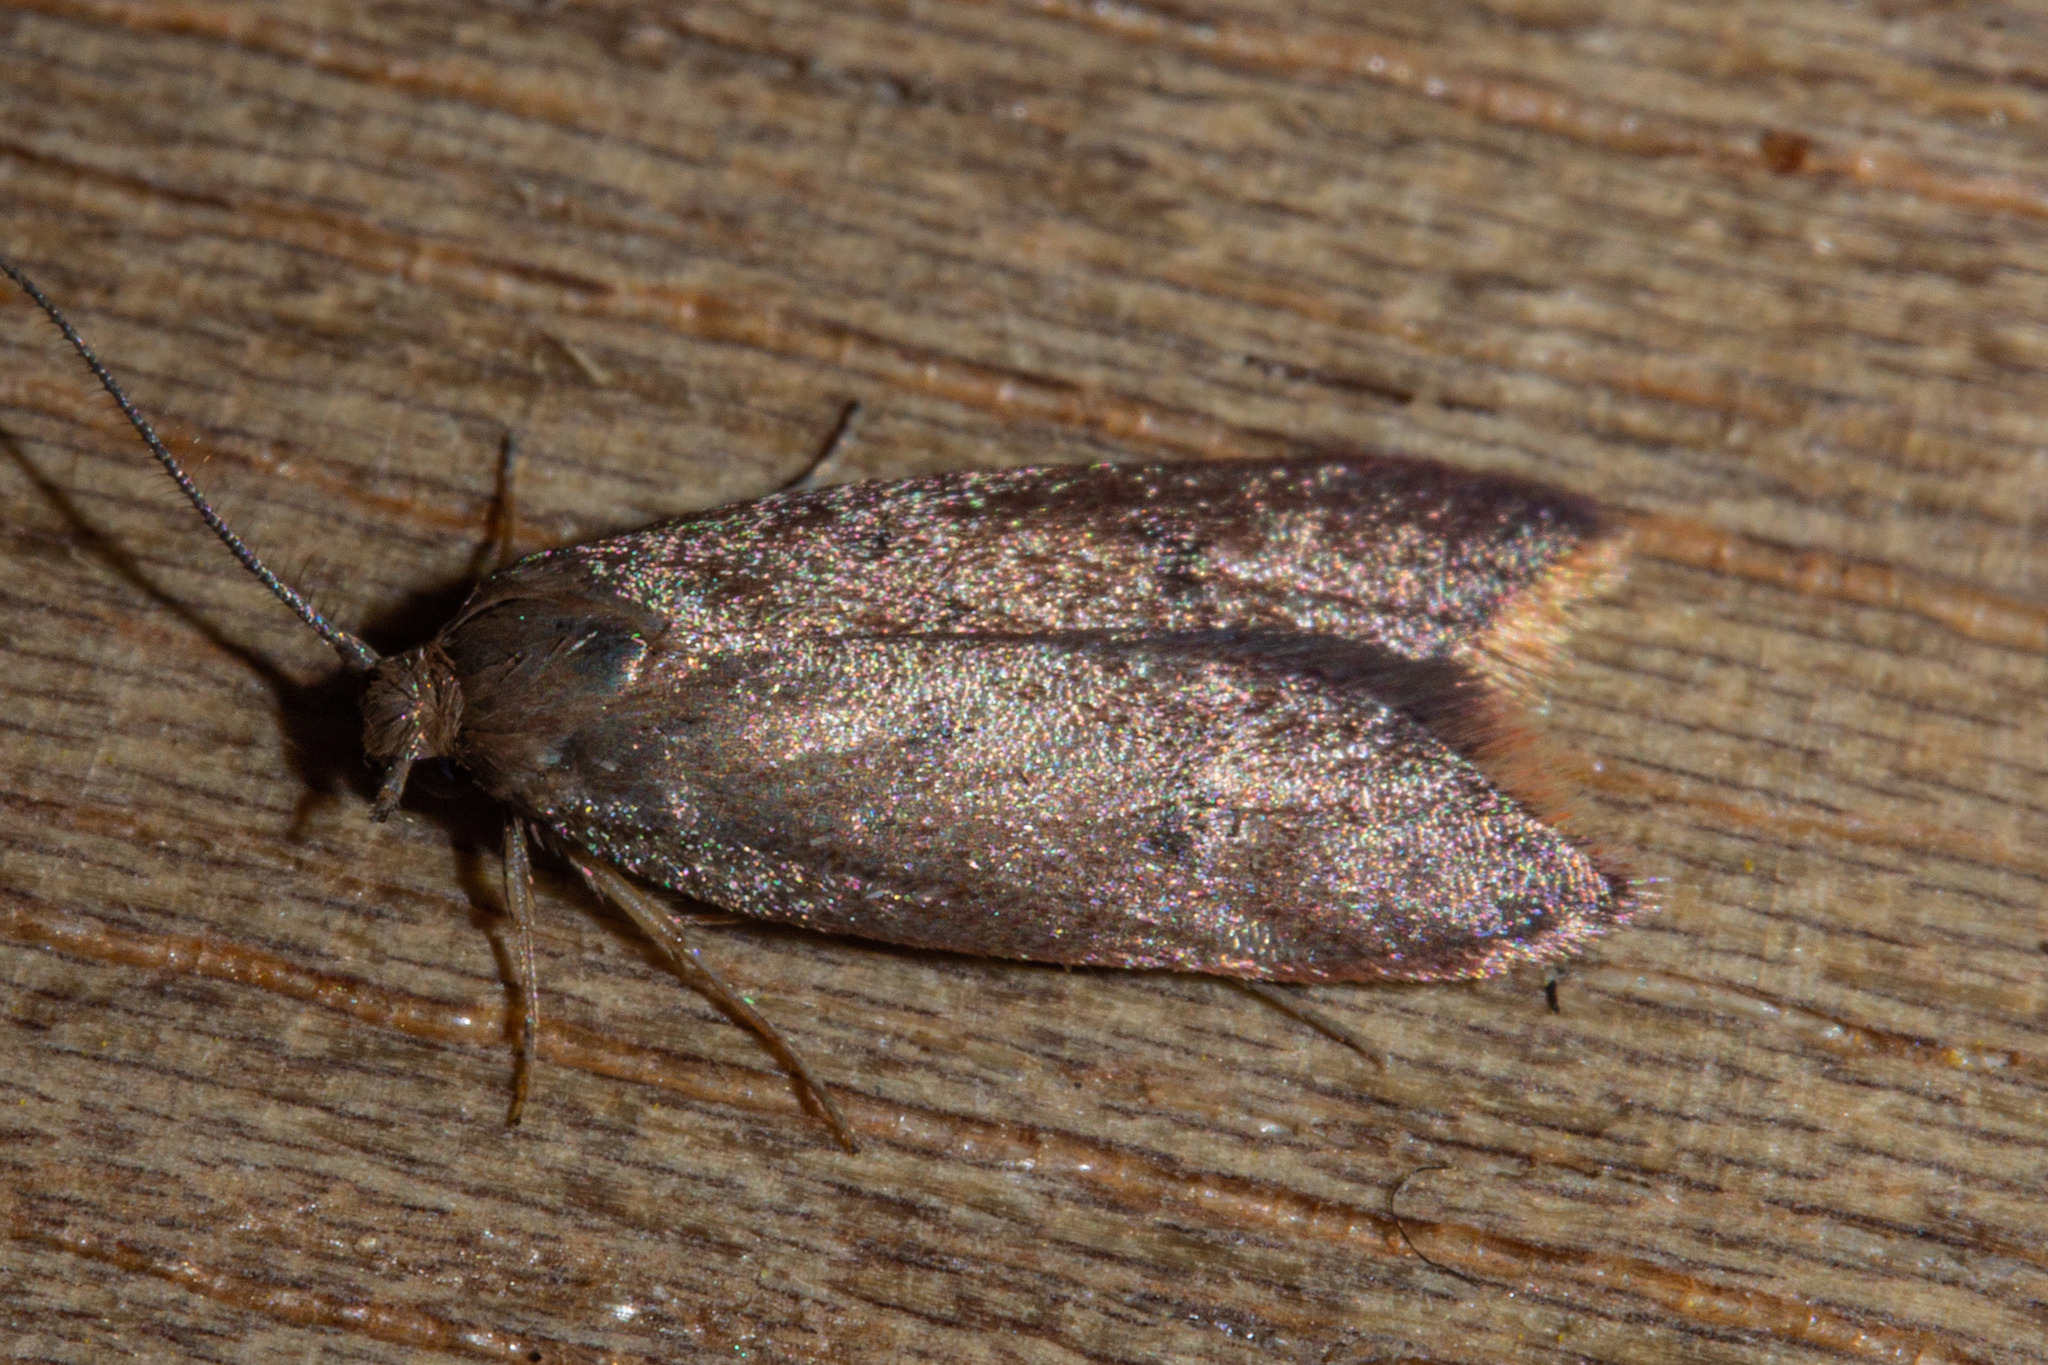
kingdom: Animalia
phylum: Arthropoda
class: Insecta
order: Lepidoptera
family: Oecophoridae
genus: Tachystola
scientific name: Tachystola acroxantha
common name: Ruddy streak
